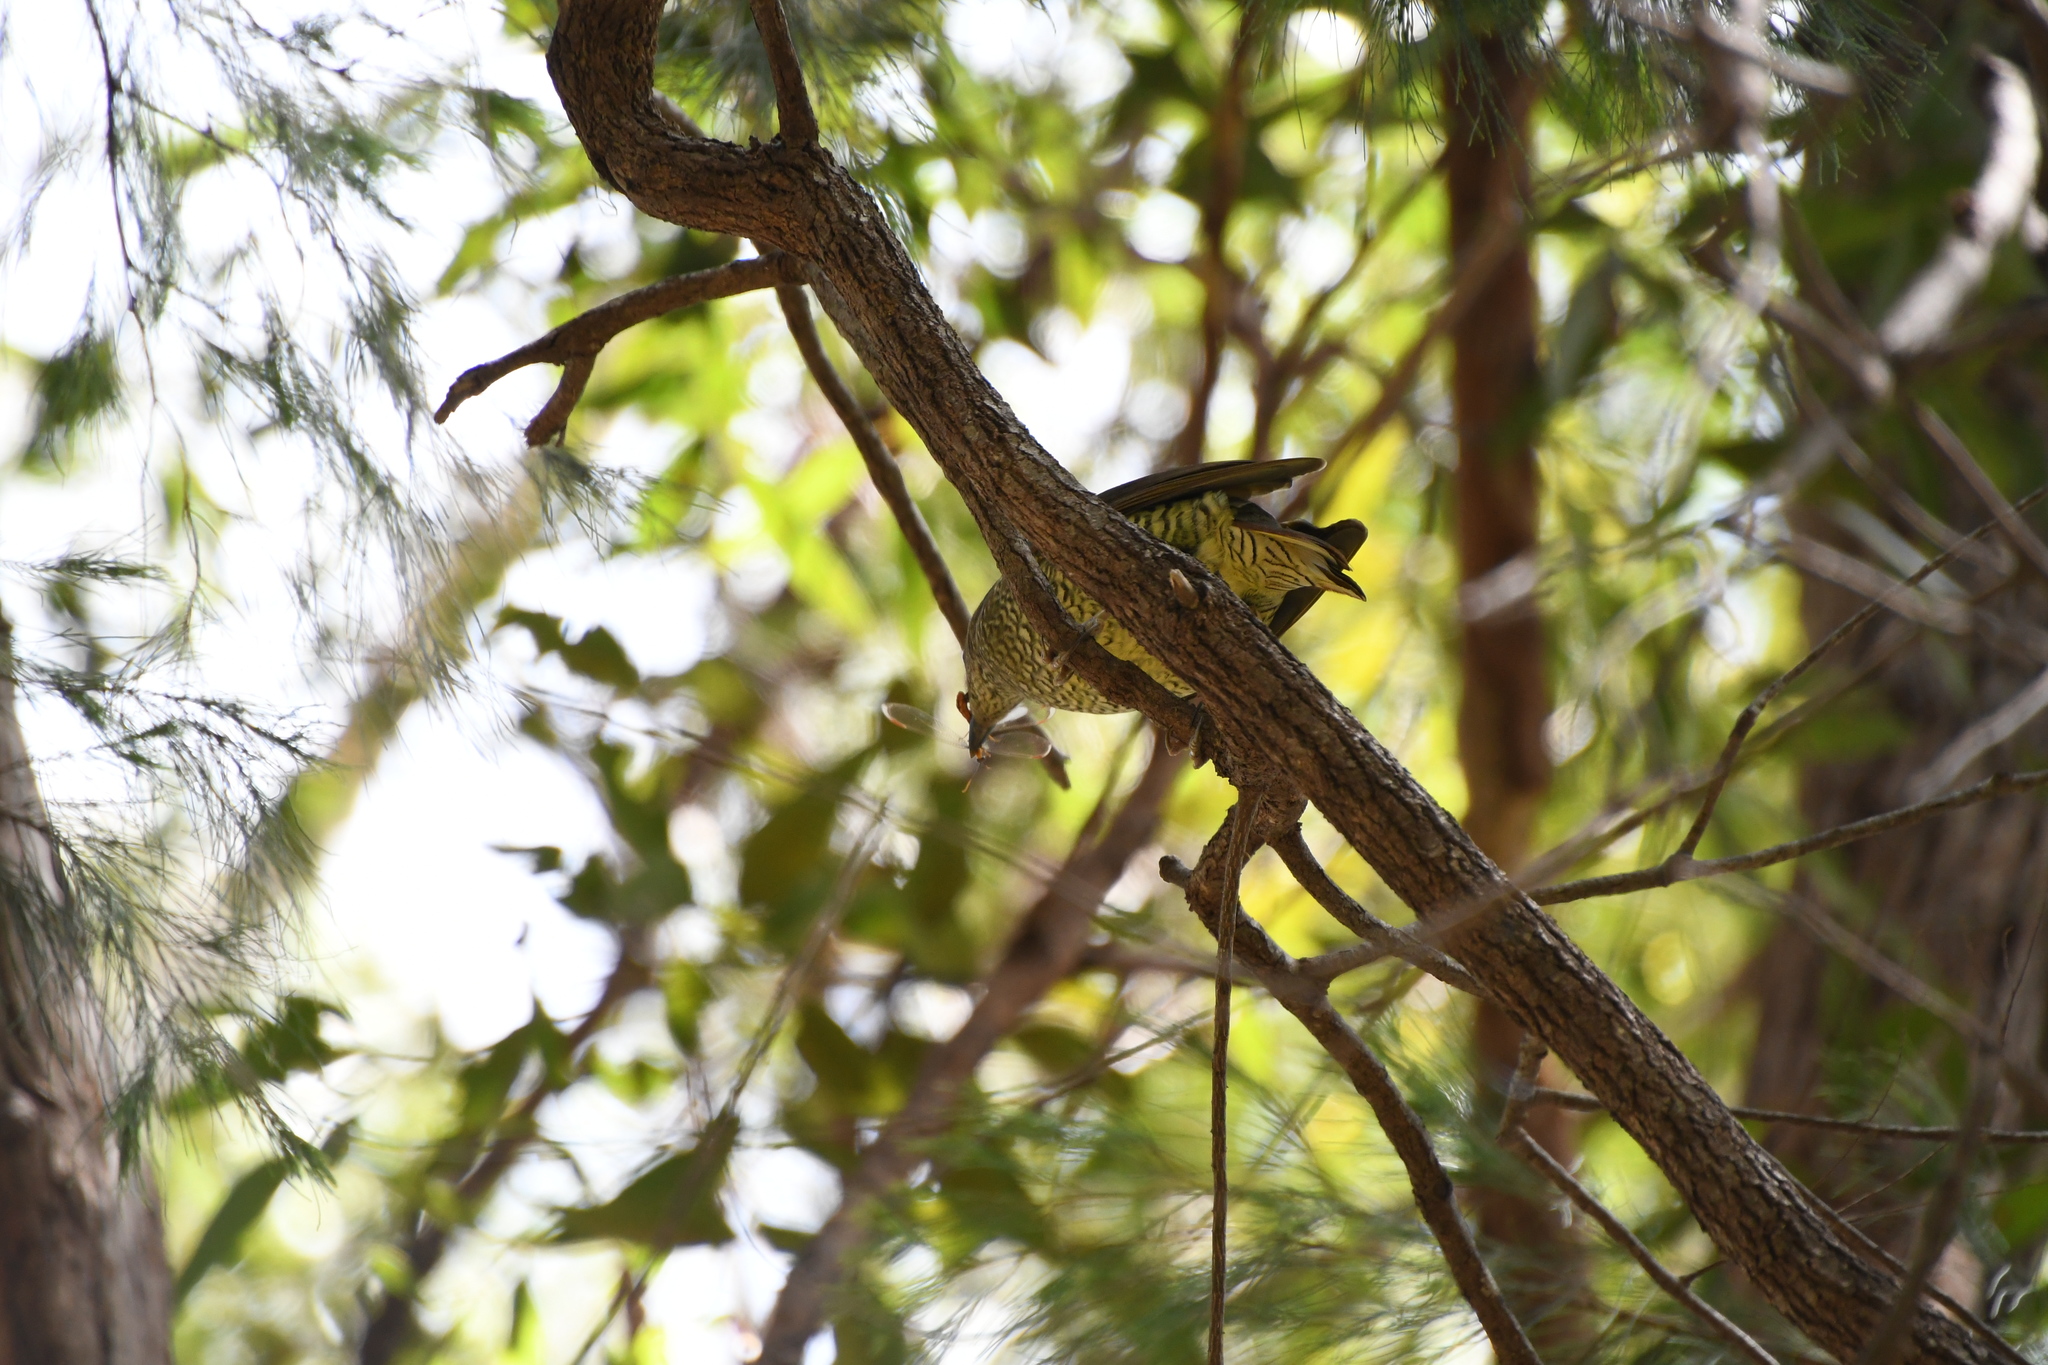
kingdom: Animalia
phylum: Chordata
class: Aves
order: Passeriformes
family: Ptilonorhynchidae
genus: Ptilonorhynchus
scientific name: Ptilonorhynchus violaceus
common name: Satin bowerbird
